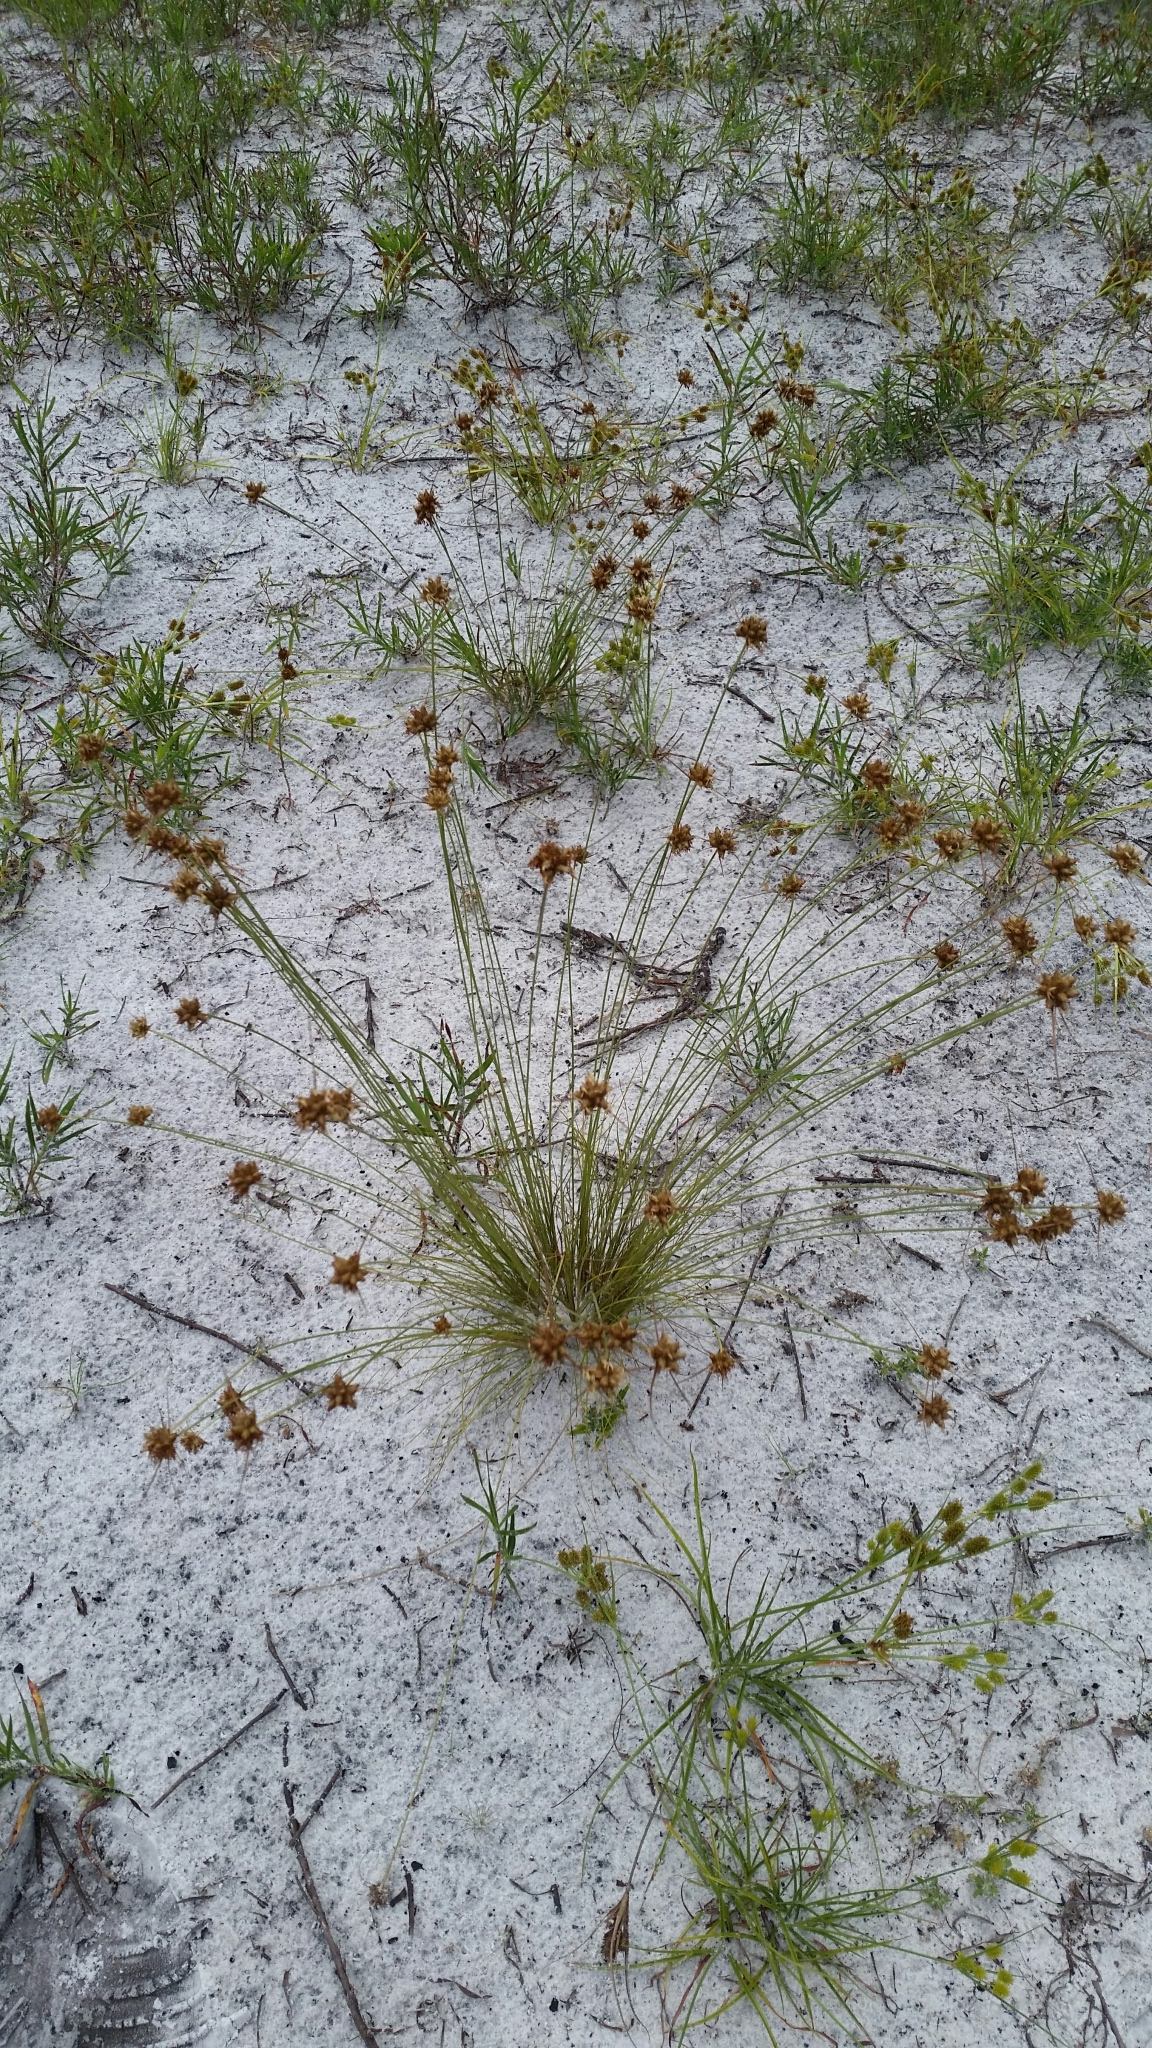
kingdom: Plantae
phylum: Tracheophyta
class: Liliopsida
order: Poales
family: Cyperaceae
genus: Bulbostylis
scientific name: Bulbostylis warei
